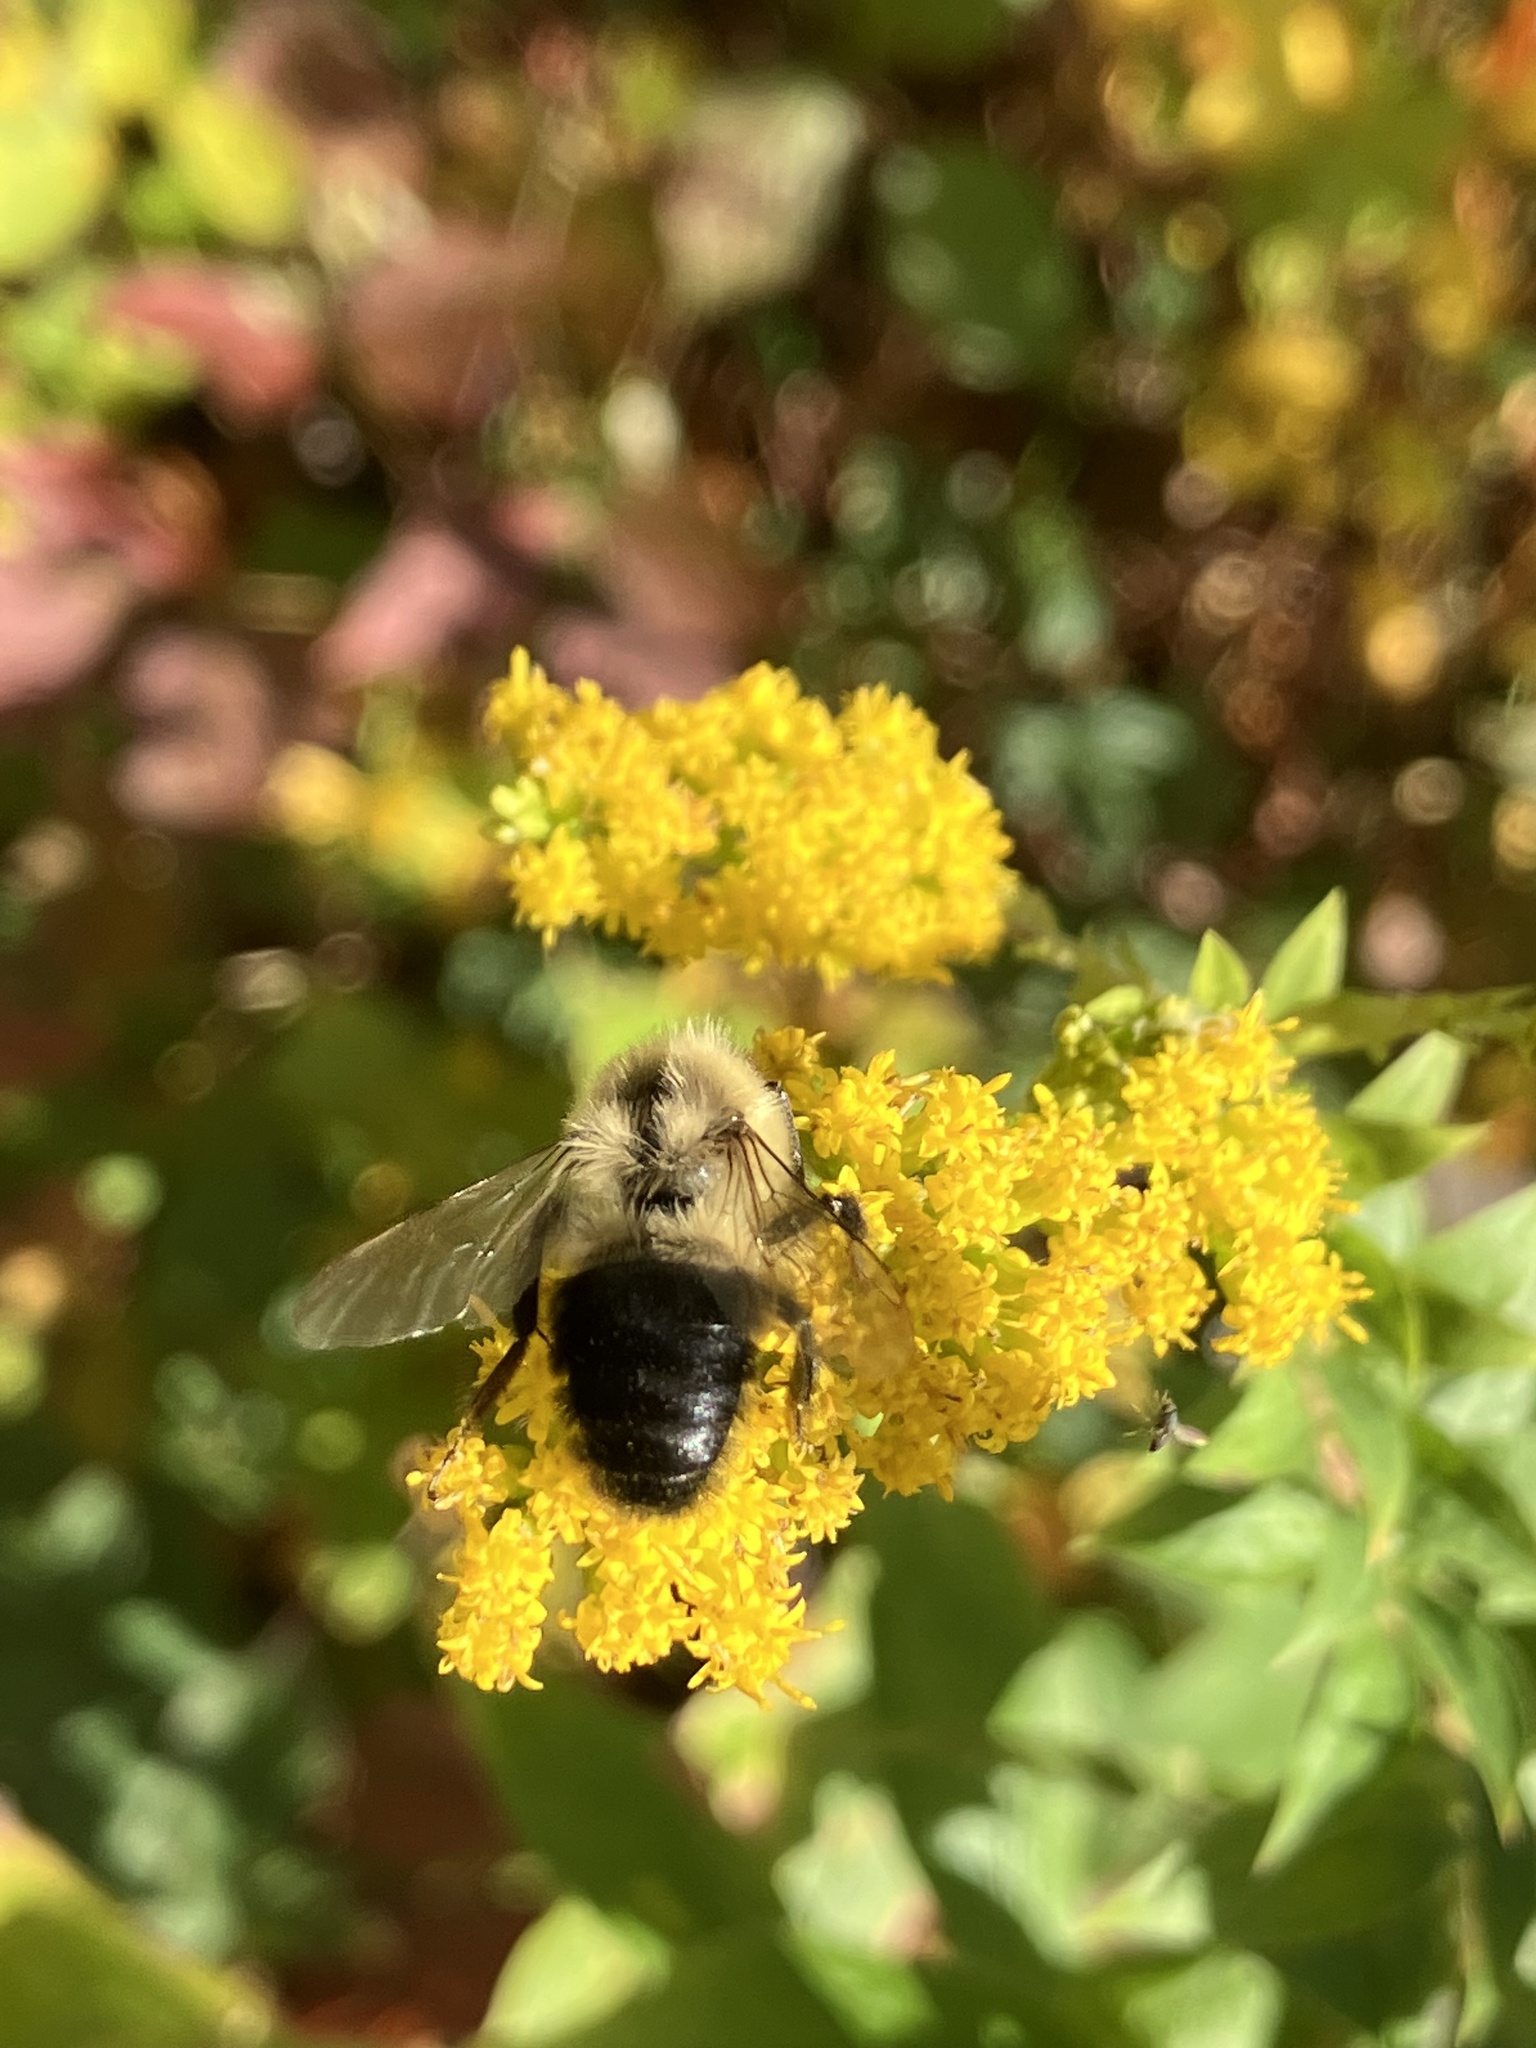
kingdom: Animalia
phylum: Arthropoda
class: Insecta
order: Hymenoptera
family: Apidae
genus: Bombus
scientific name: Bombus impatiens
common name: Common eastern bumble bee
